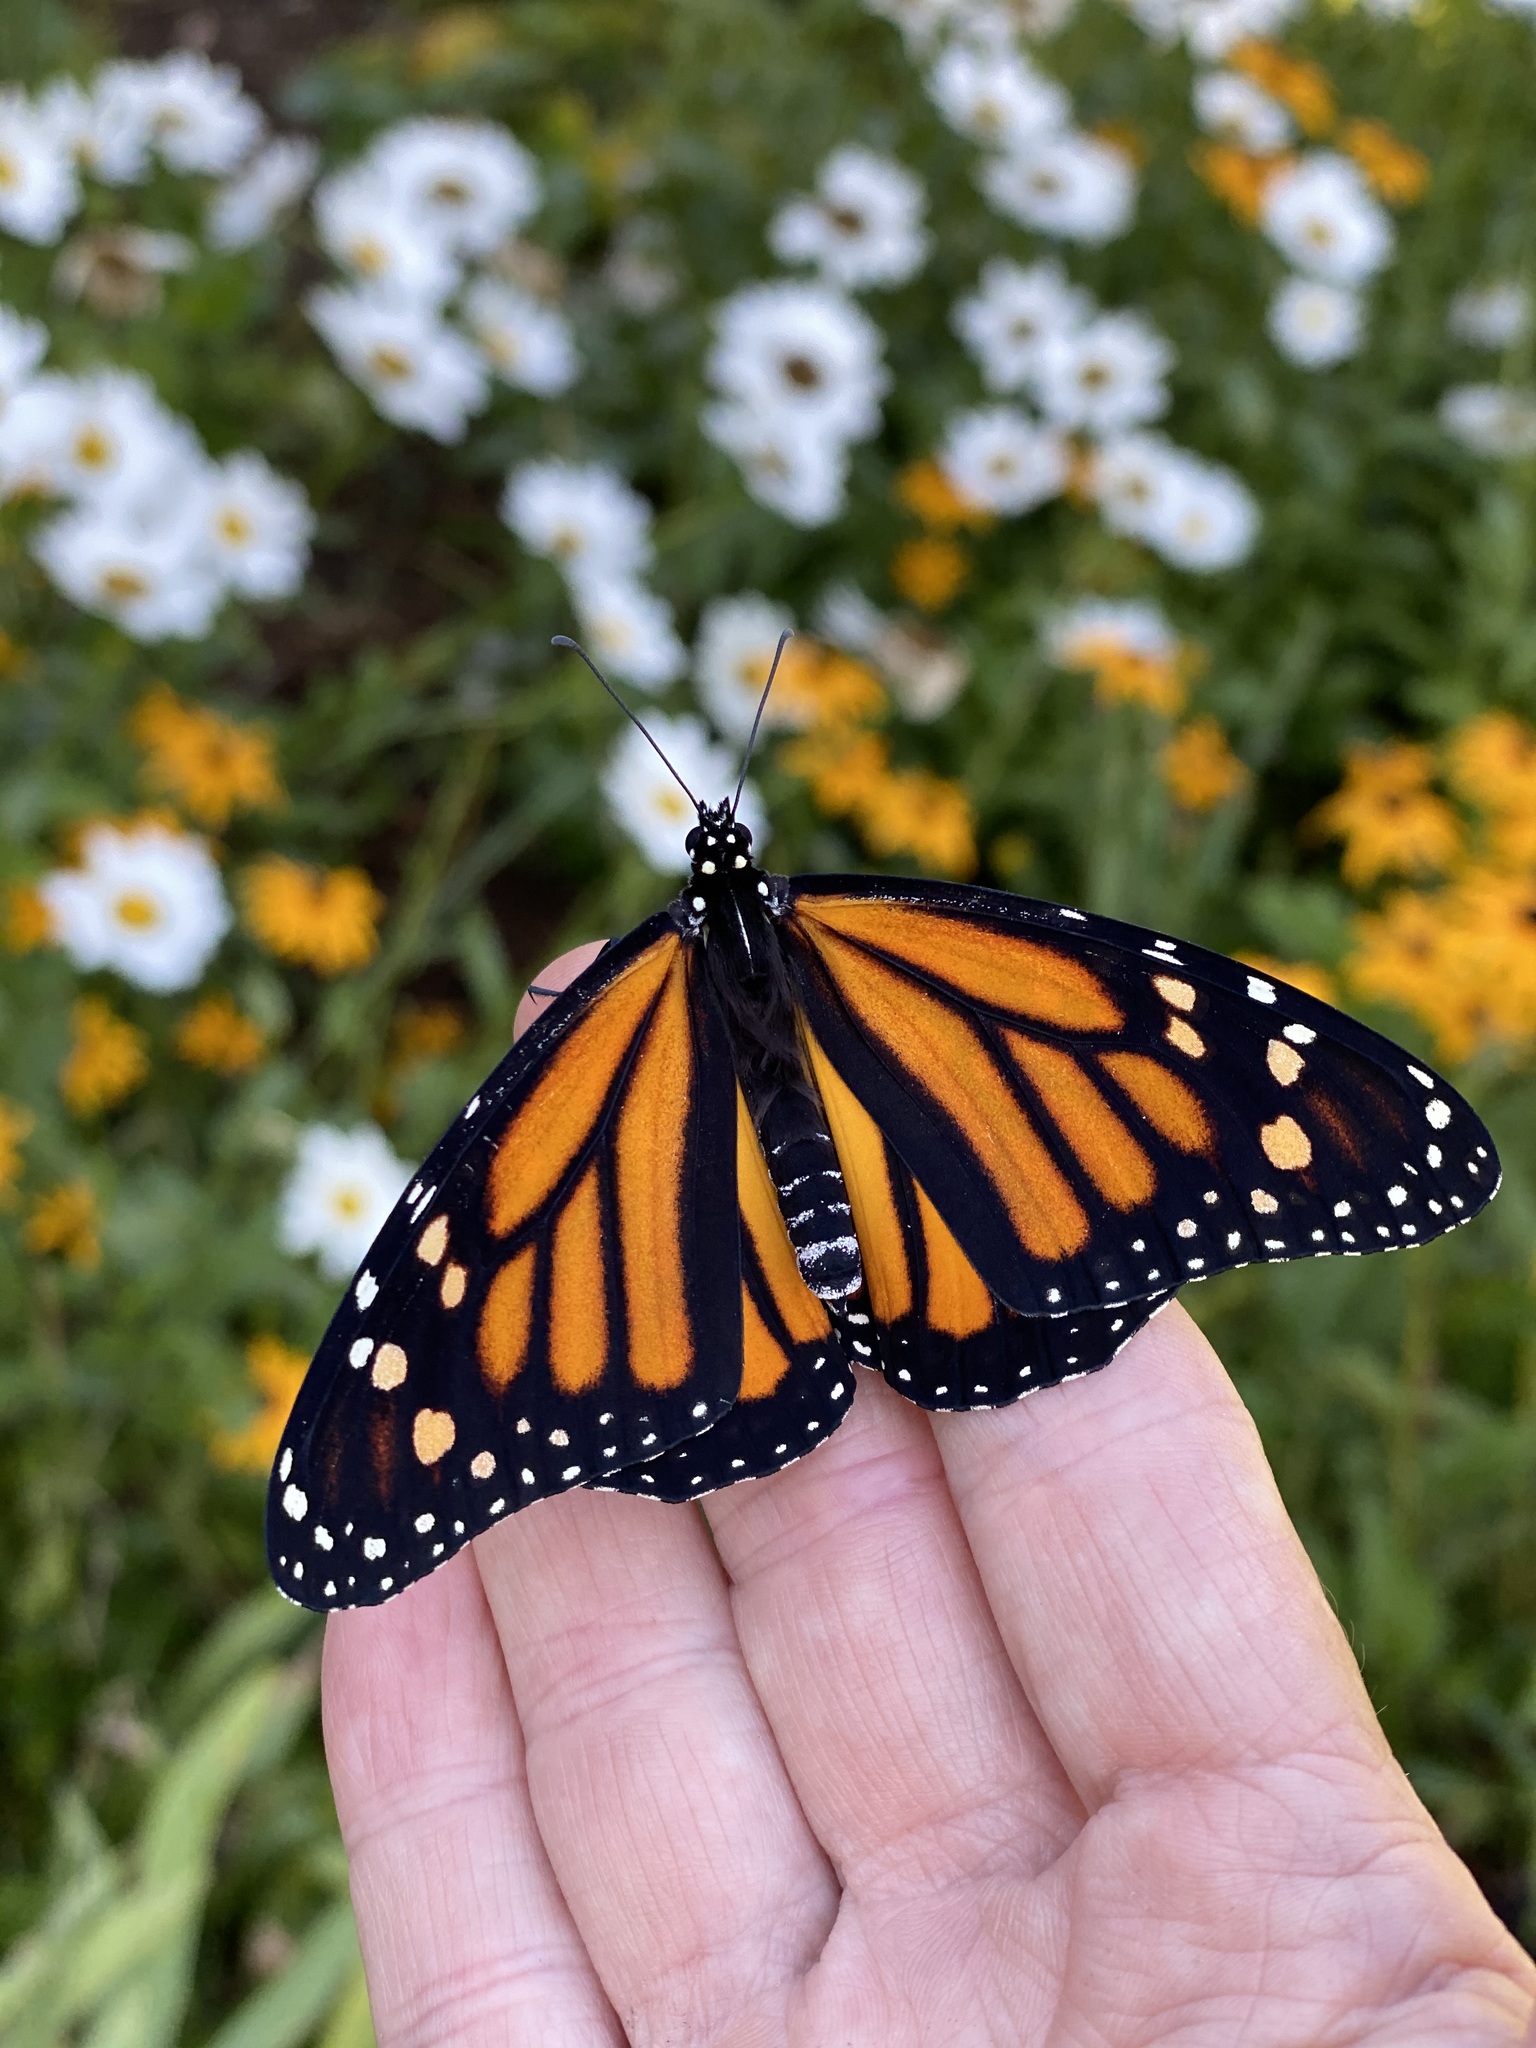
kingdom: Animalia
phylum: Arthropoda
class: Insecta
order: Lepidoptera
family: Nymphalidae
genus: Danaus
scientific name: Danaus plexippus
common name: Monarch
